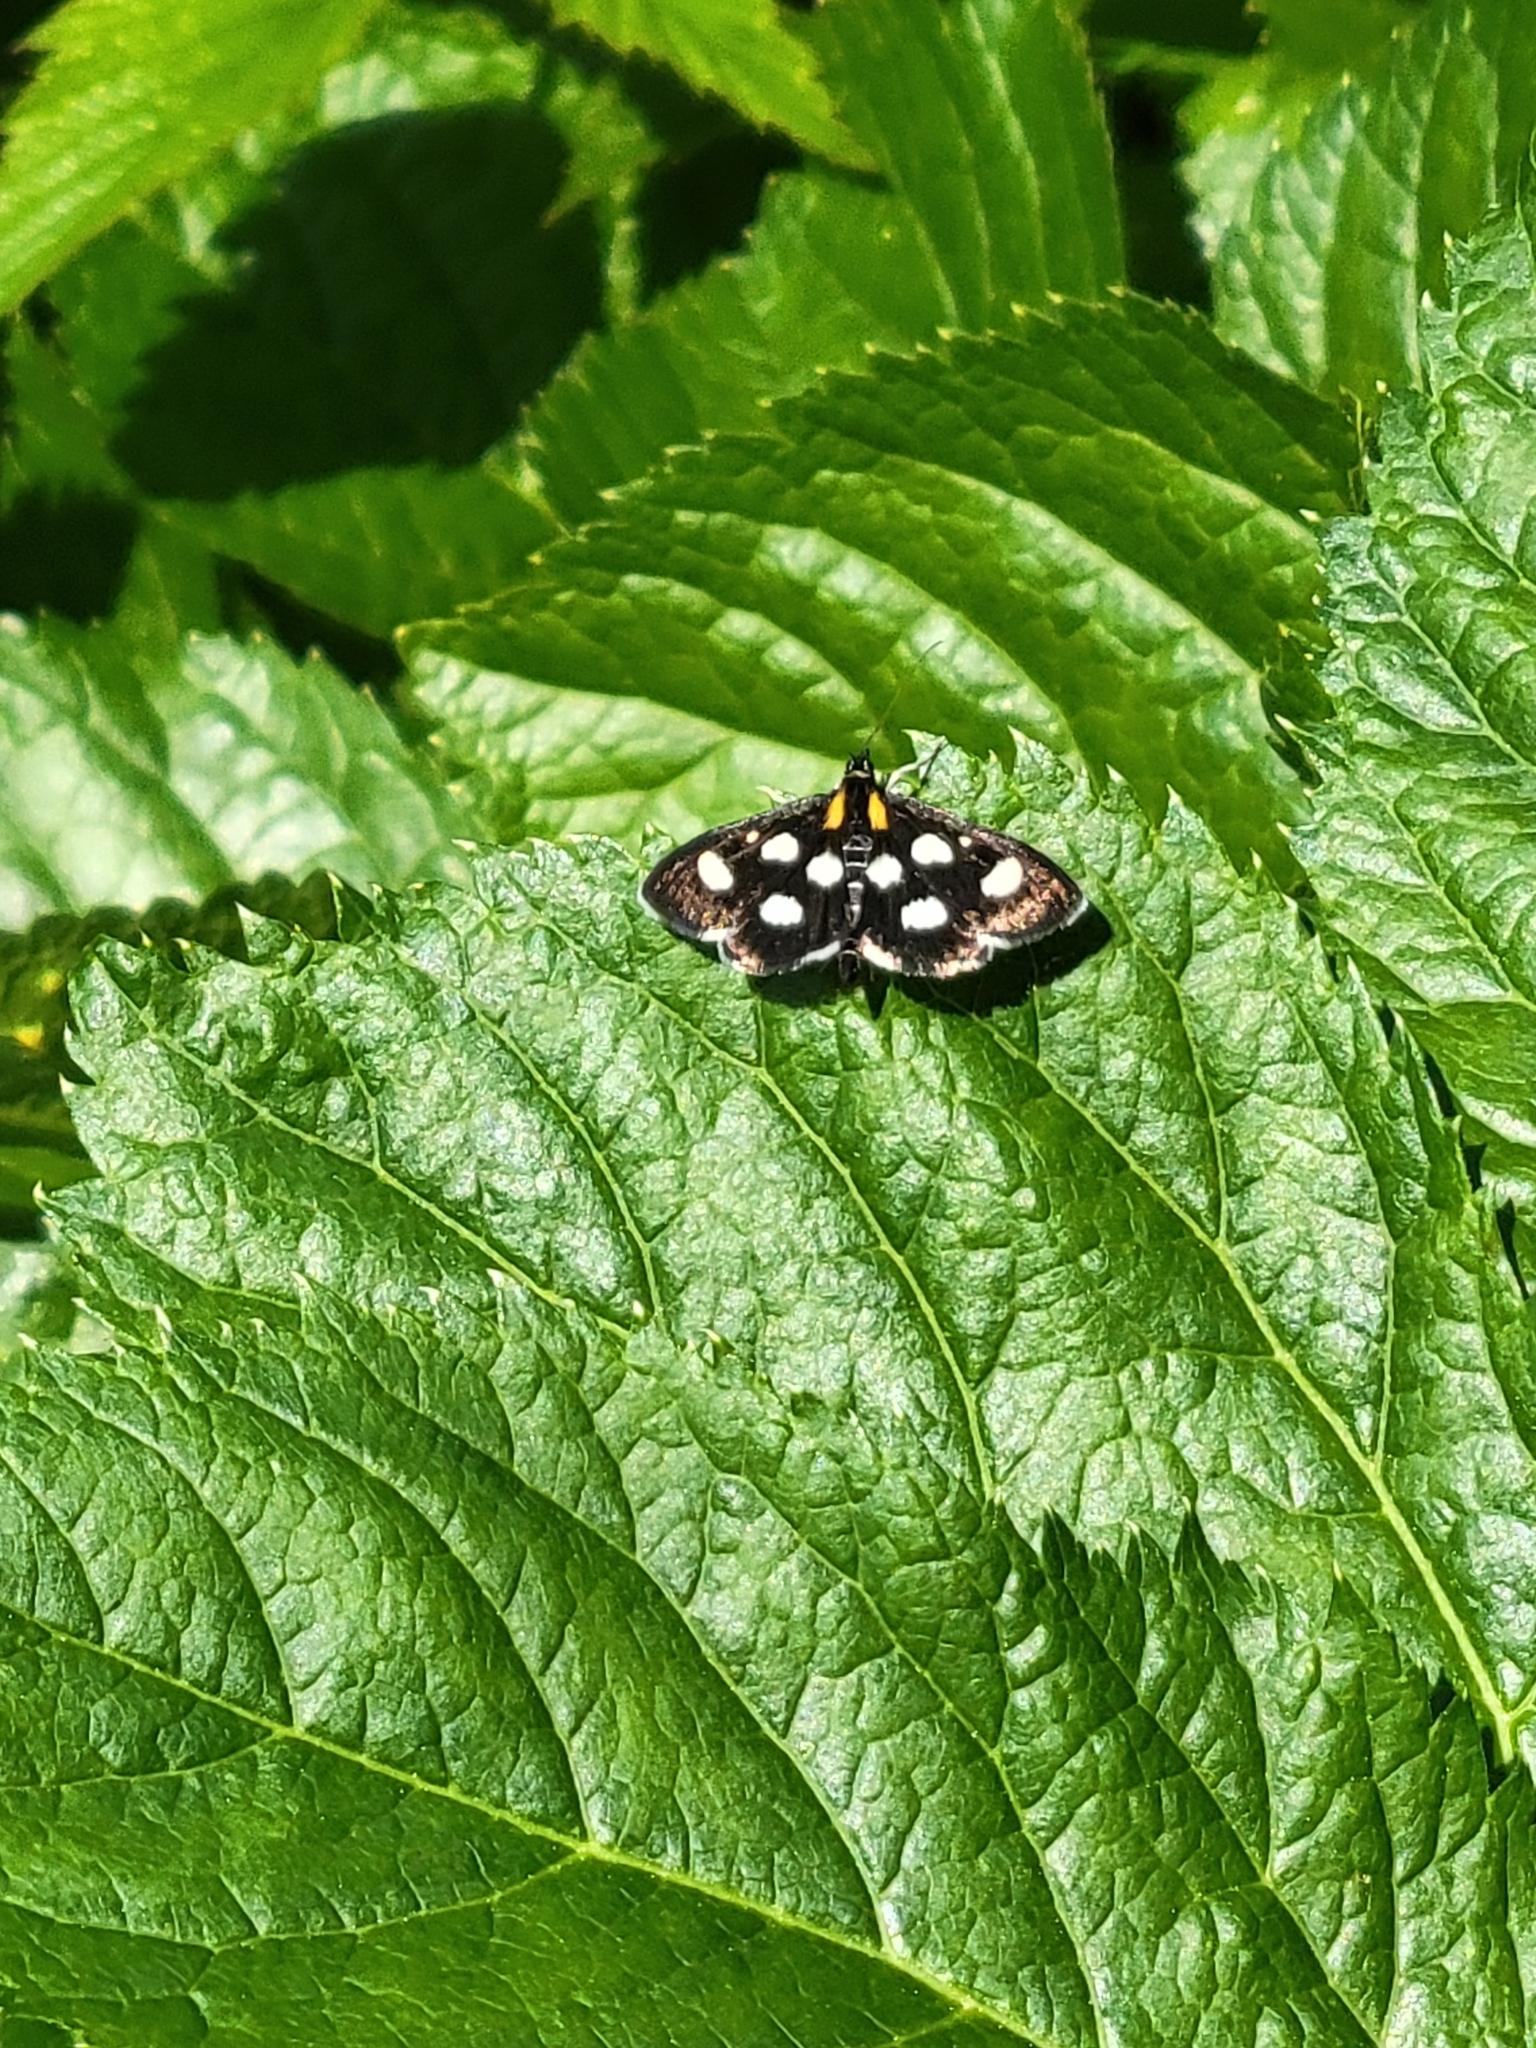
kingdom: Animalia
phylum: Arthropoda
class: Insecta
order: Lepidoptera
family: Crambidae
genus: Anania
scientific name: Anania funebris
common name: White-spotted sable moth
